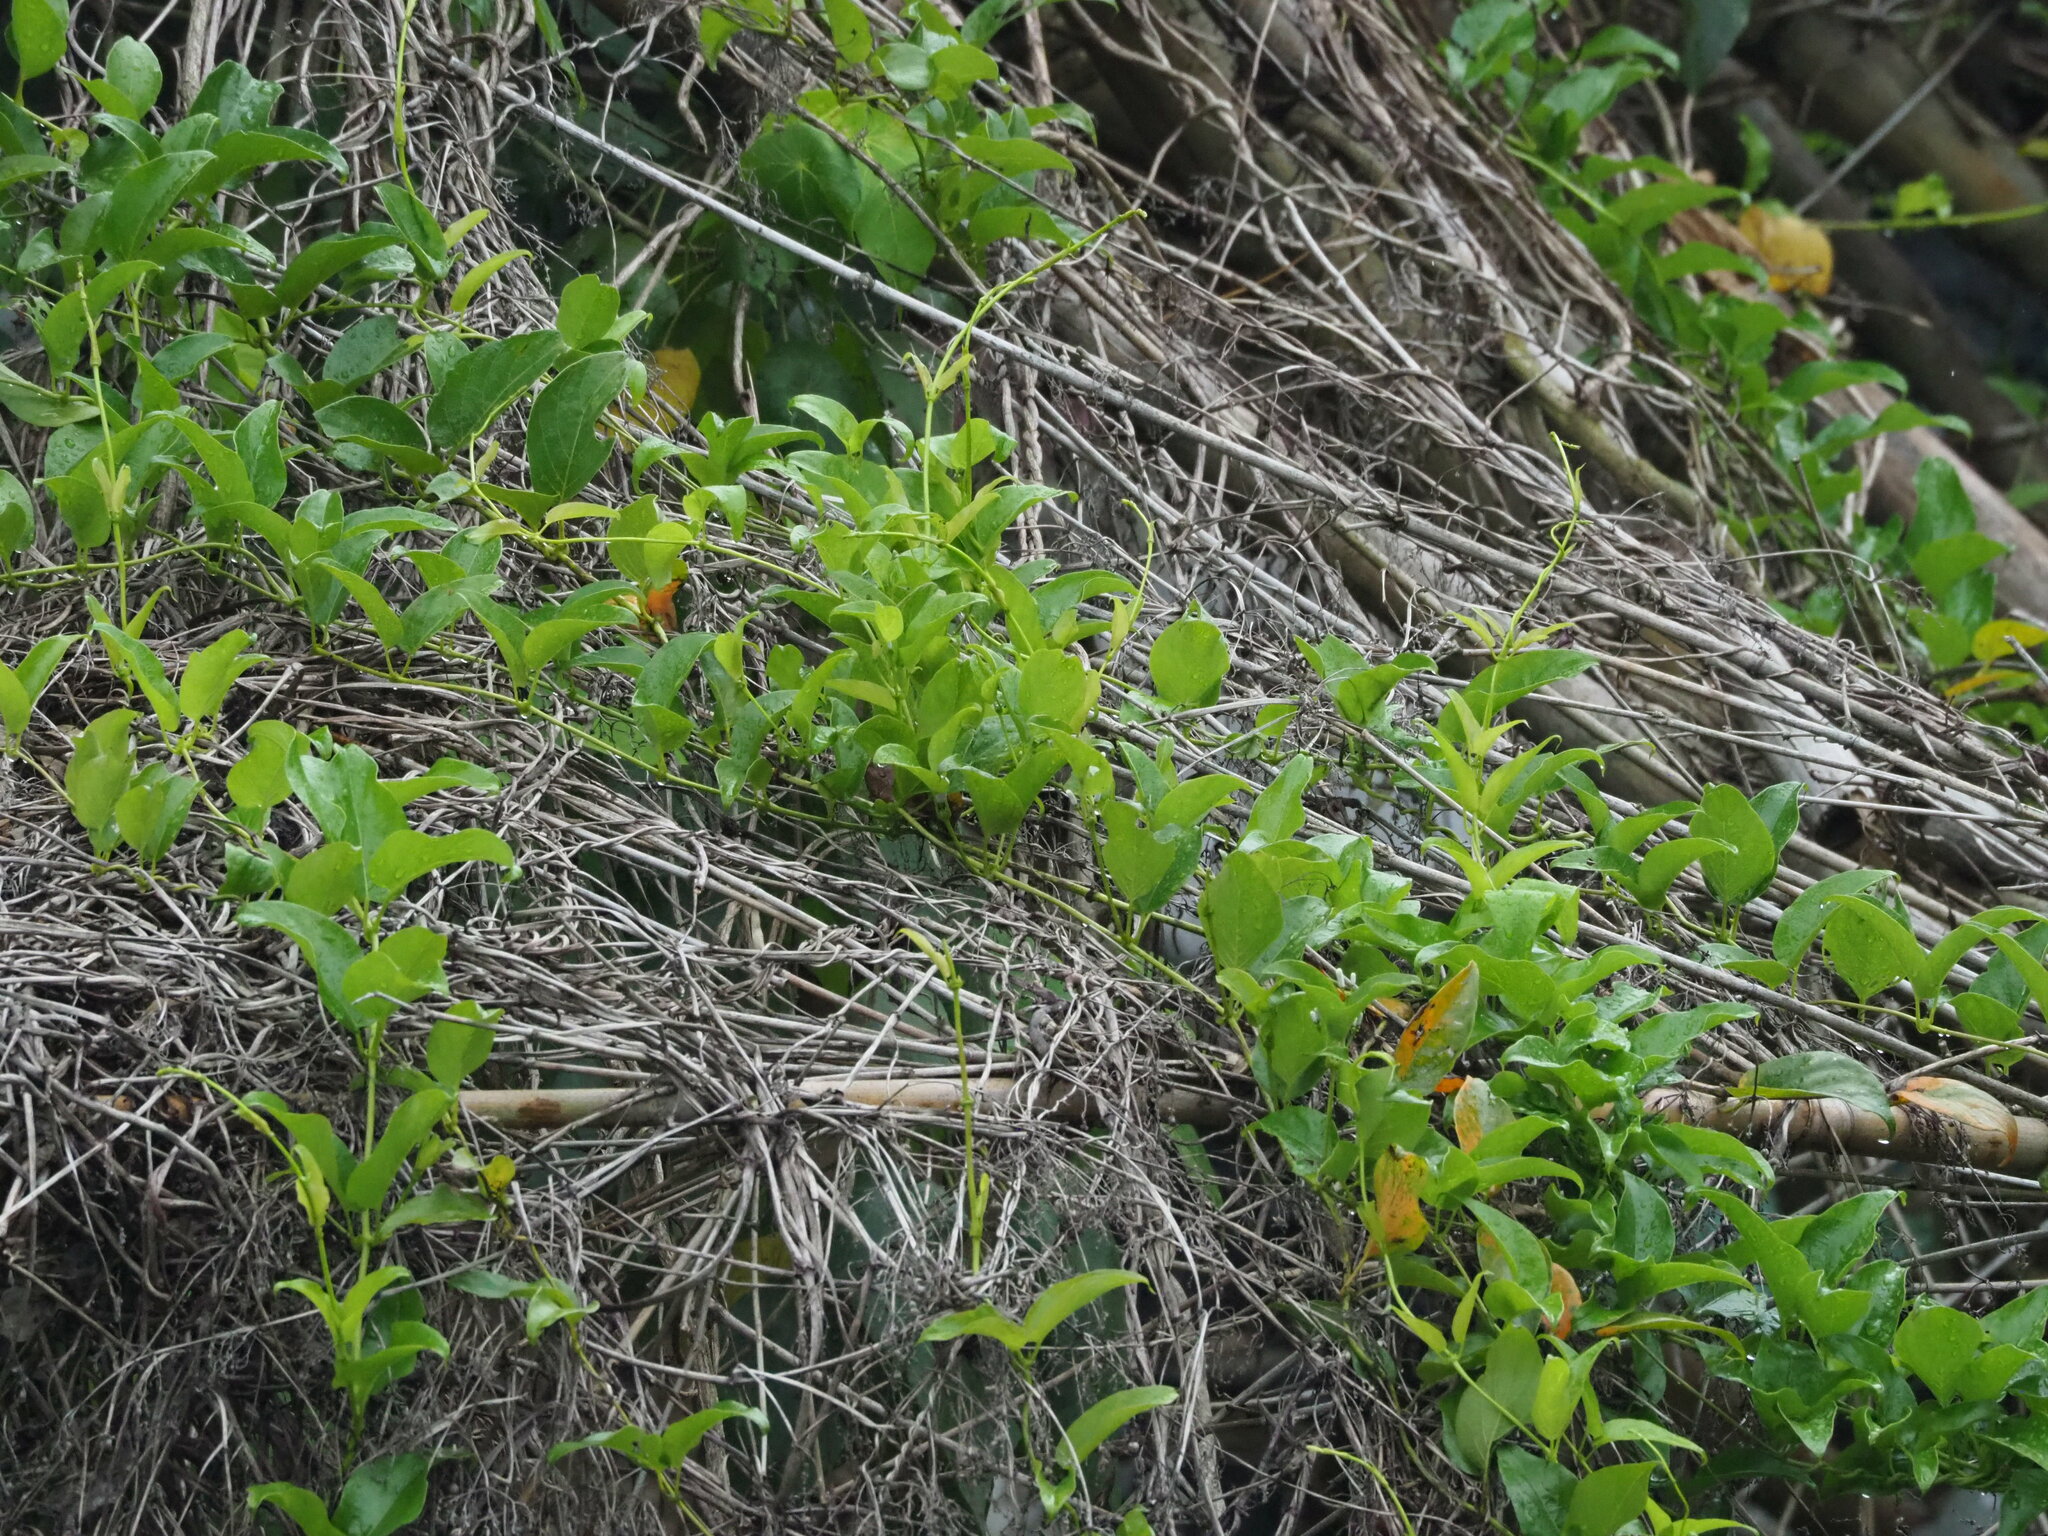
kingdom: Plantae
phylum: Tracheophyta
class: Magnoliopsida
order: Gentianales
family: Rubiaceae
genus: Paederia
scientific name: Paederia foetida
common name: Stinkvine
